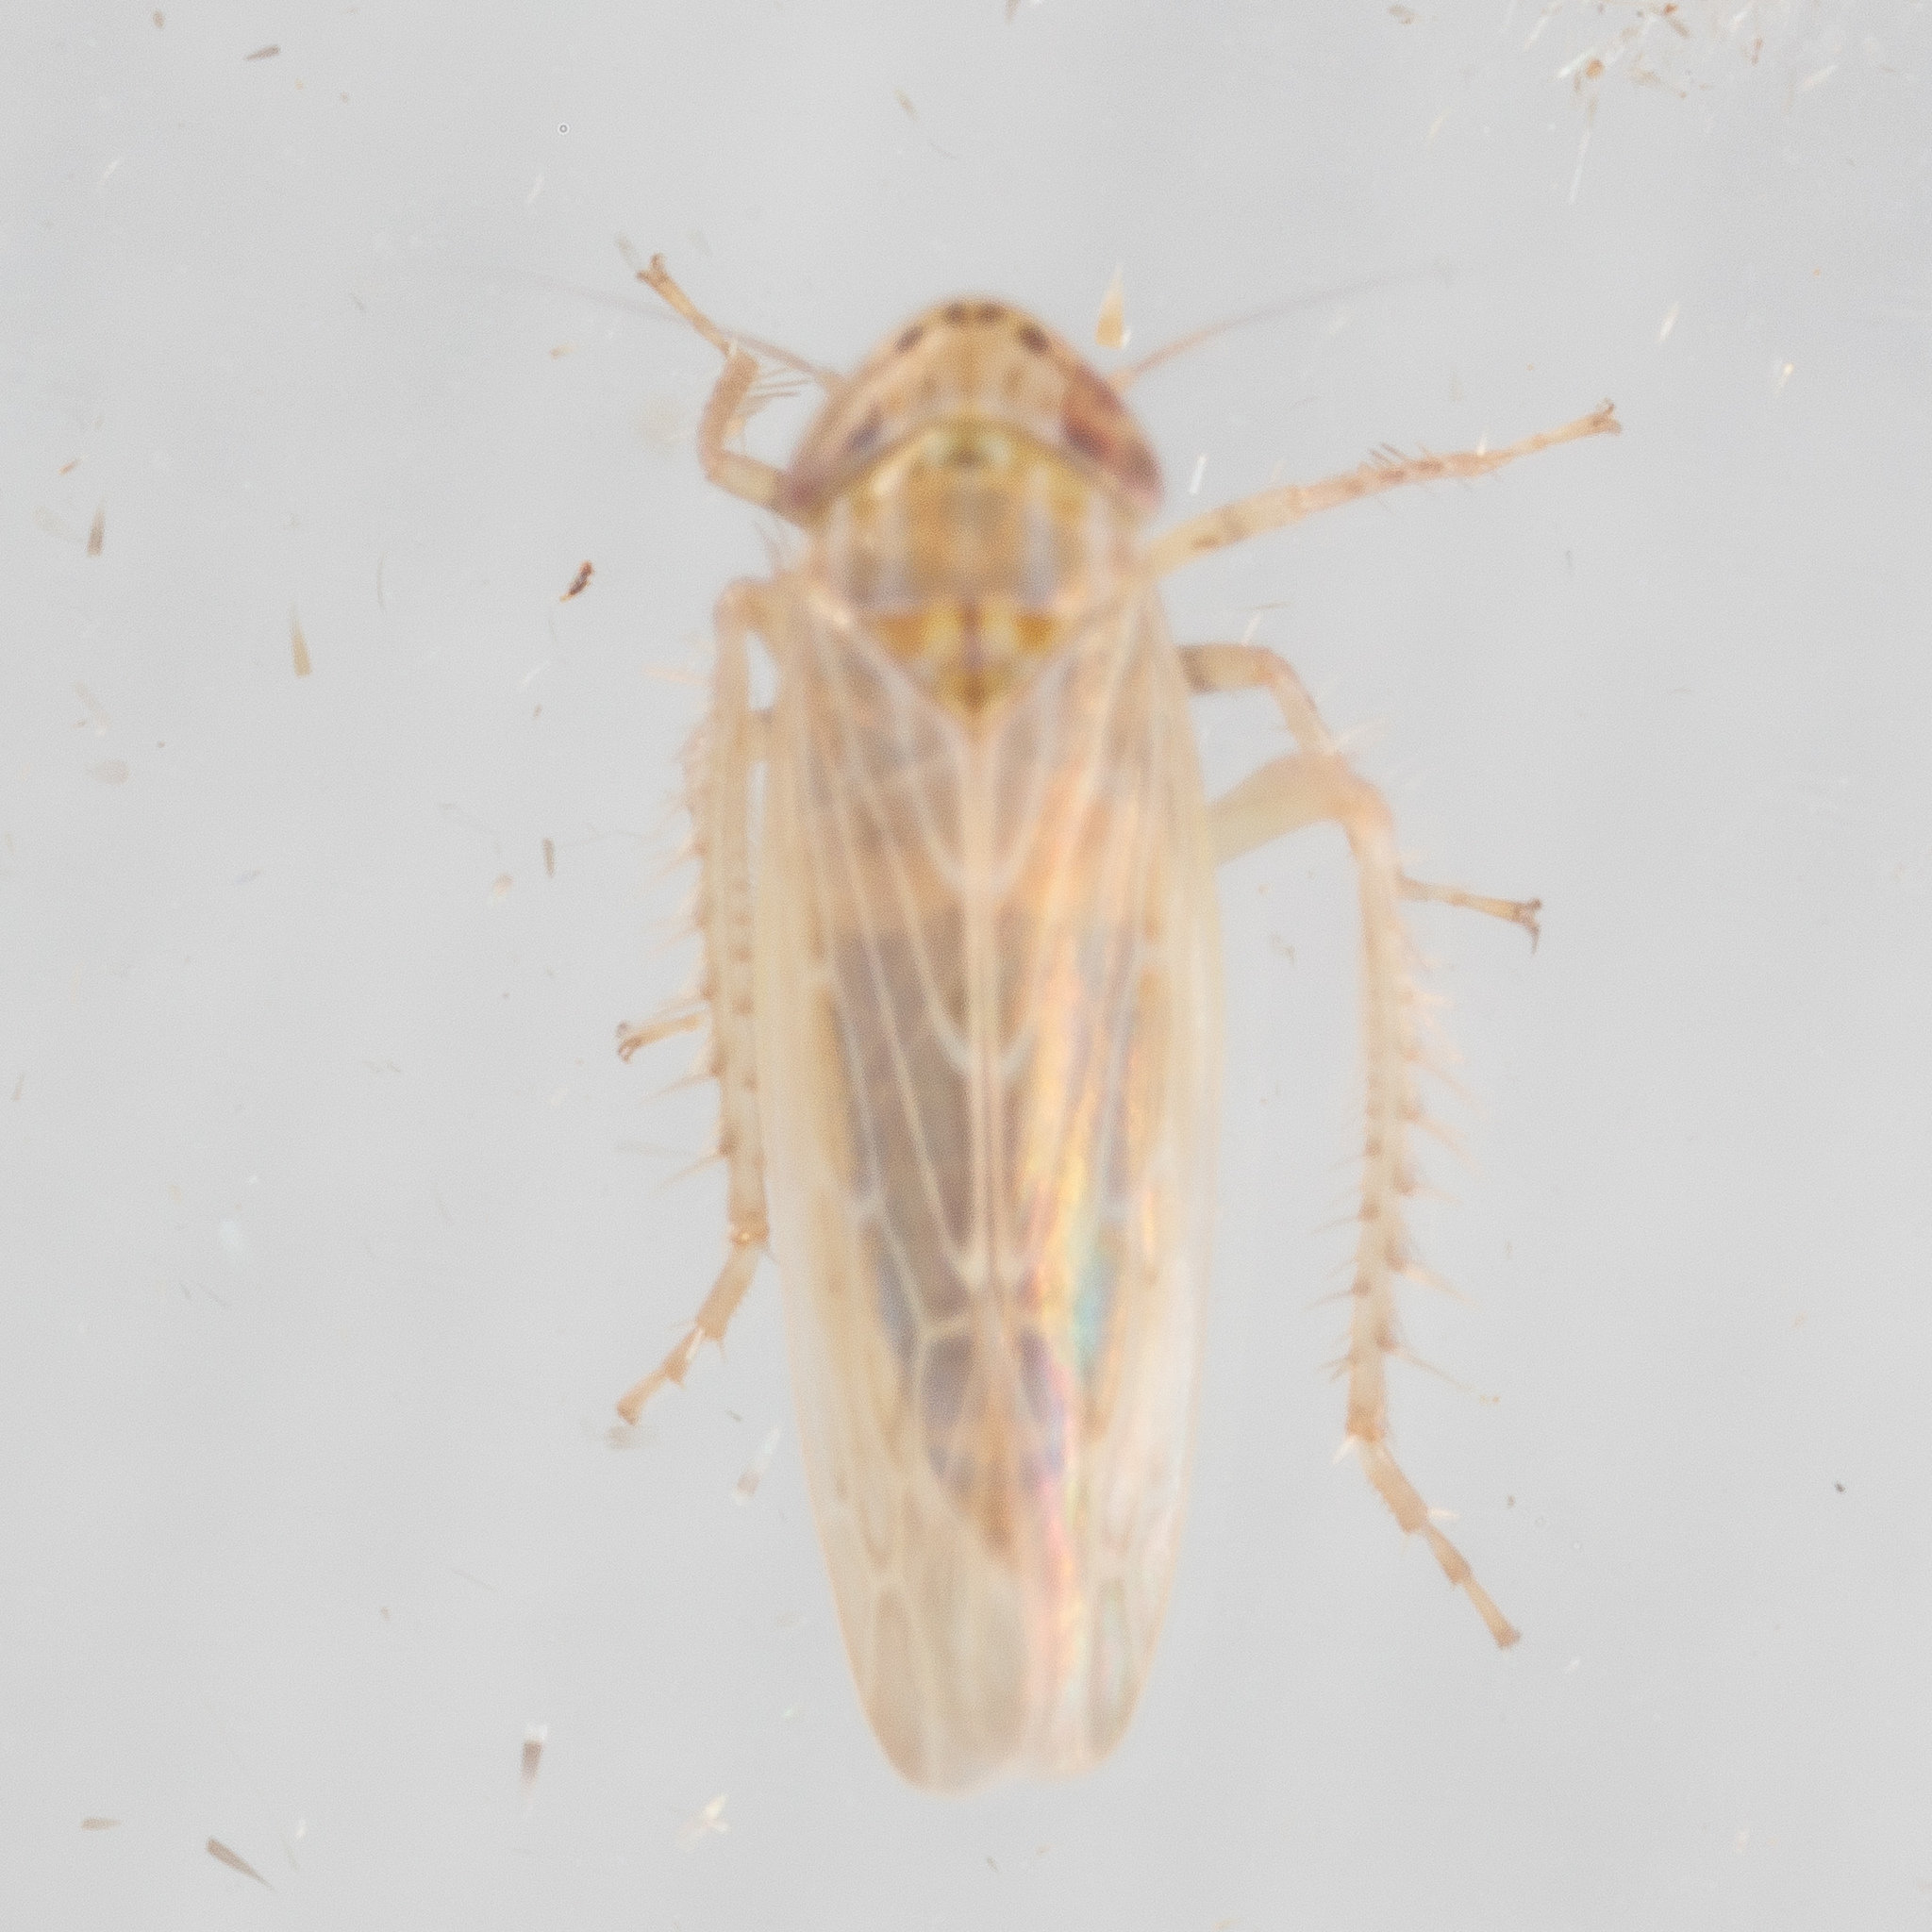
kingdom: Animalia
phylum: Arthropoda
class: Insecta
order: Hemiptera
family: Cicadellidae
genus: Graminella
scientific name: Graminella sonora
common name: Lesser lawn leafhopper
